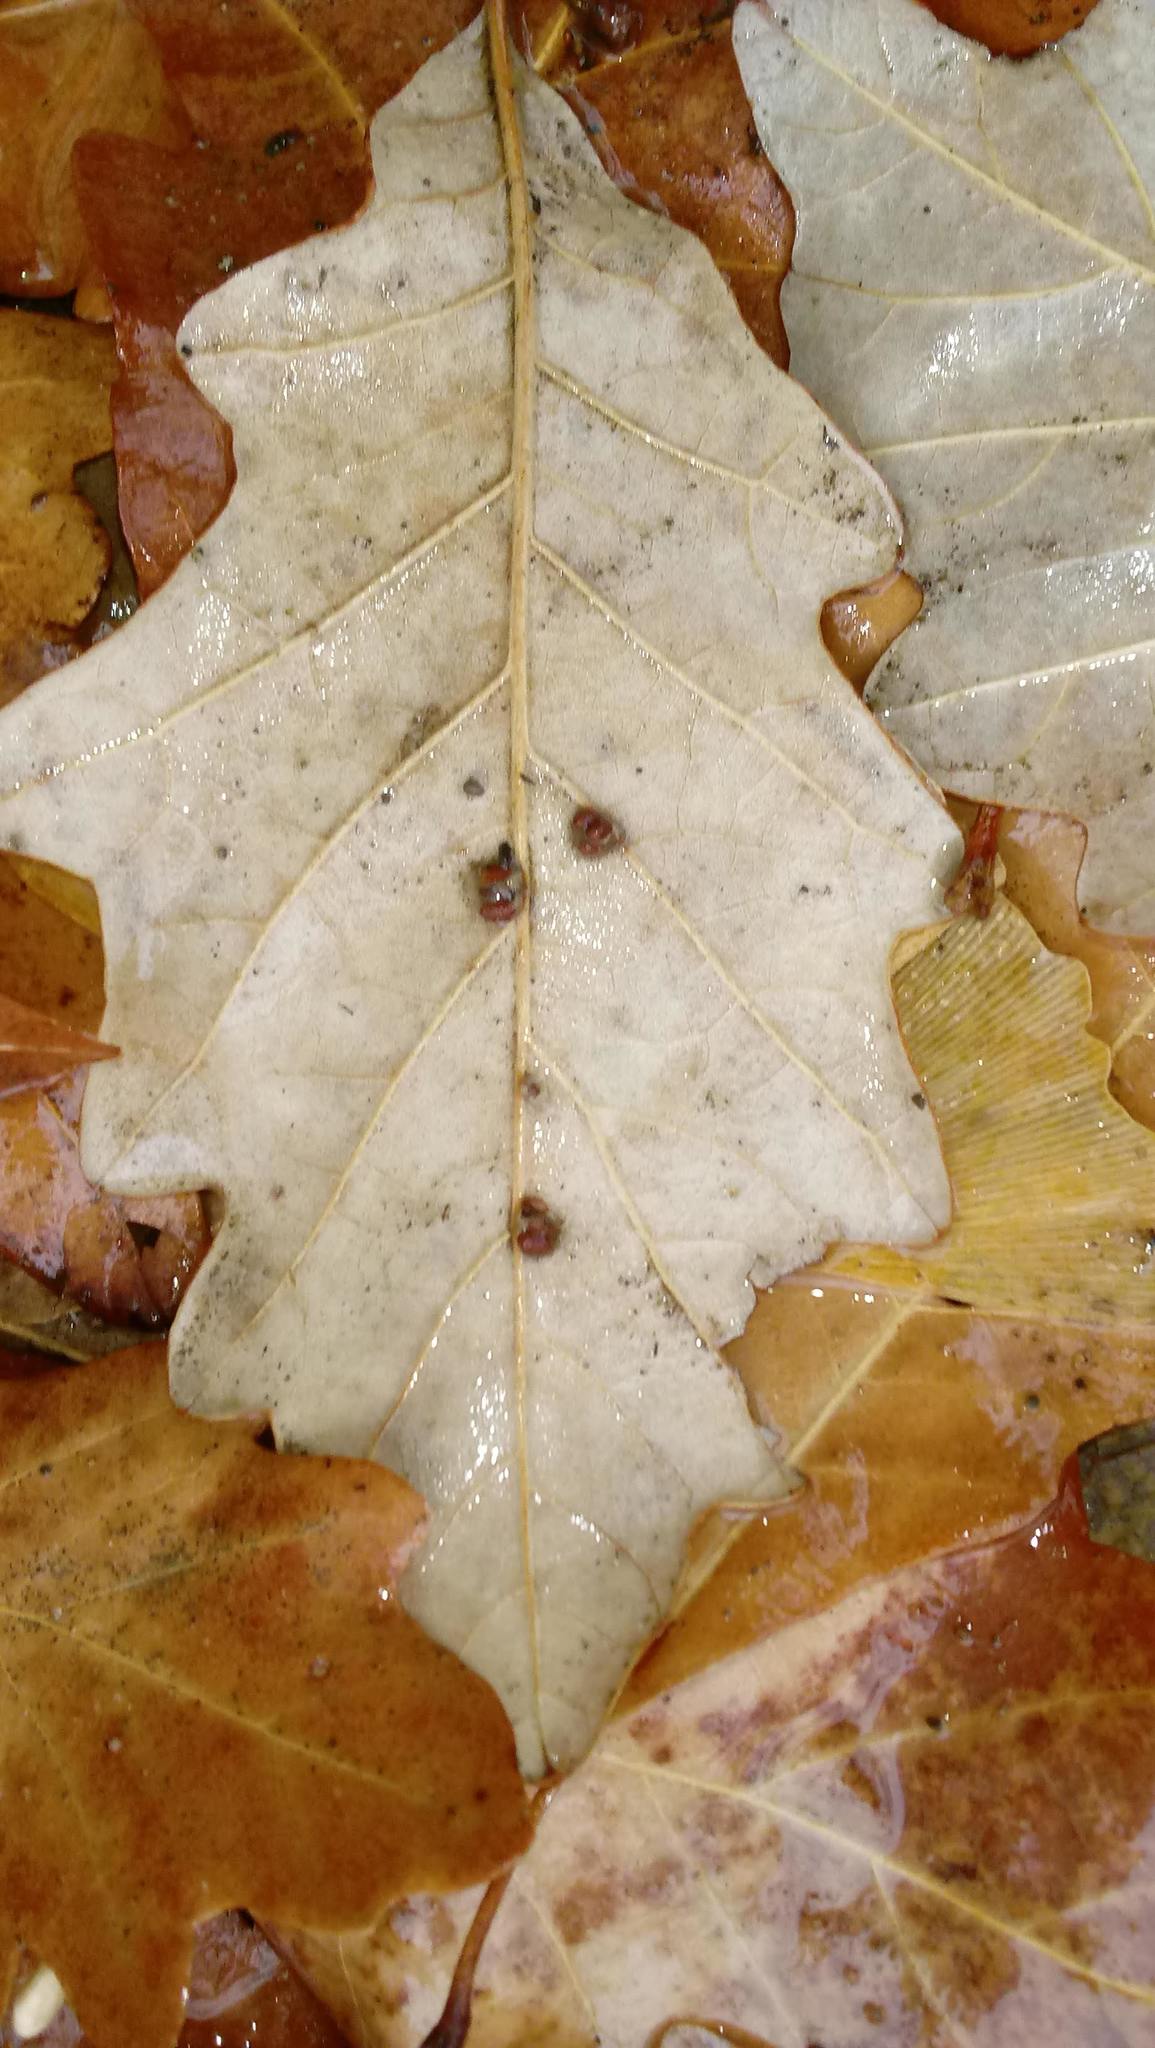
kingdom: Animalia
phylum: Arthropoda
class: Insecta
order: Hymenoptera
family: Cynipidae
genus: Andricus
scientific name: Andricus Druon ignotum
